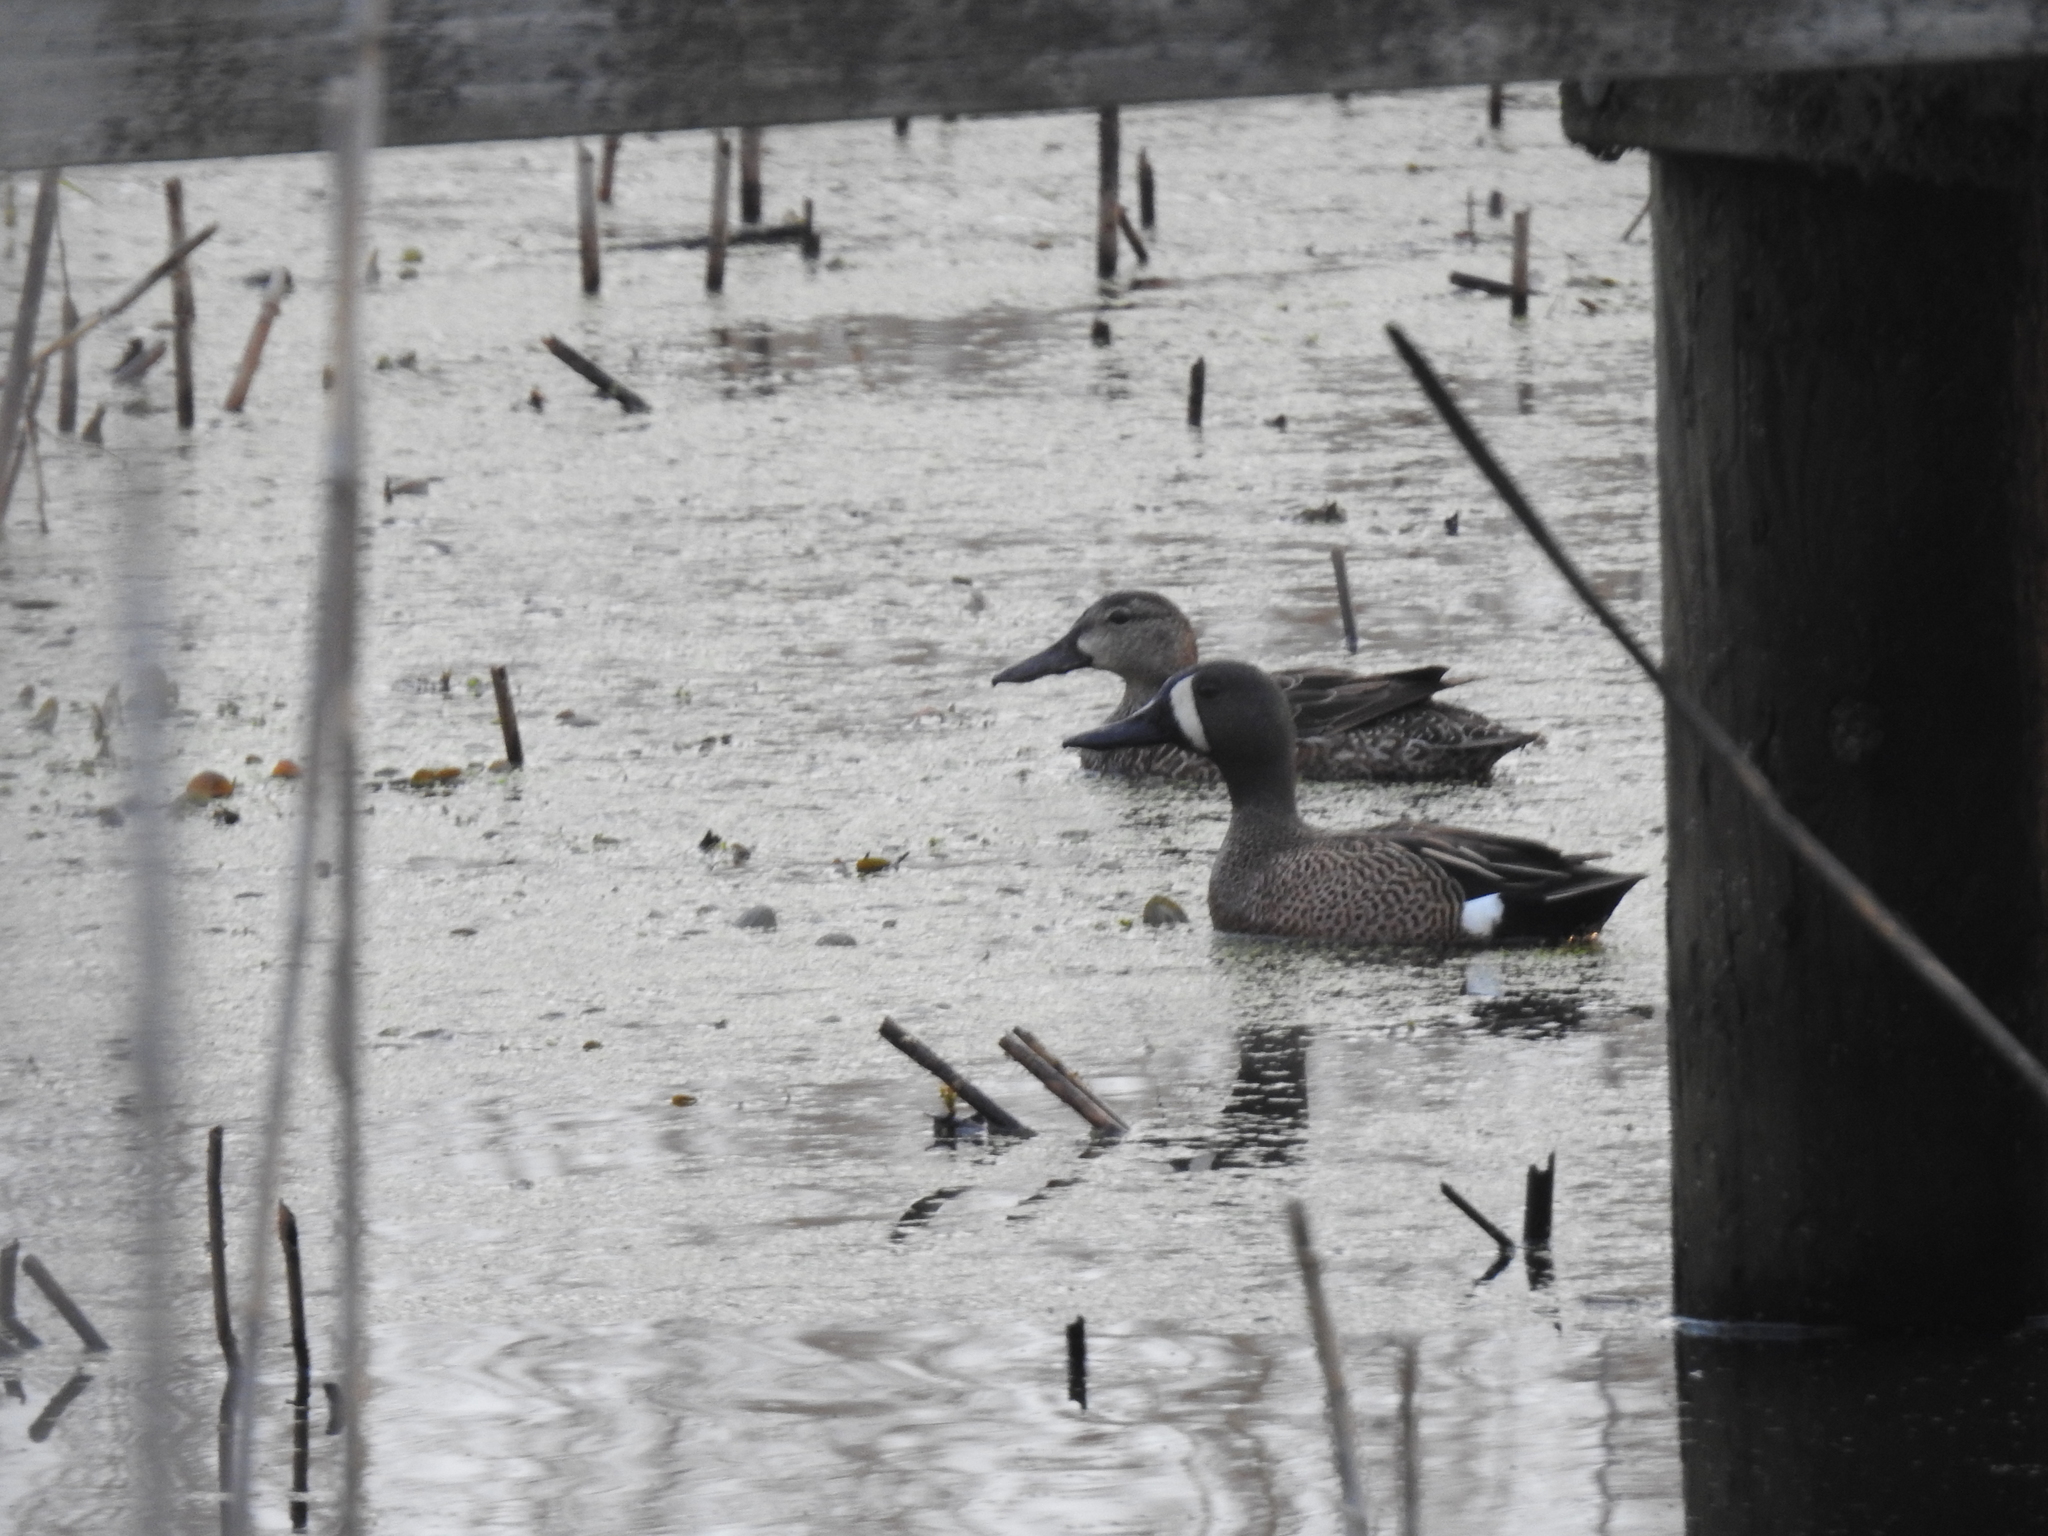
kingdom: Animalia
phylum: Chordata
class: Aves
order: Anseriformes
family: Anatidae
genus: Spatula
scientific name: Spatula discors
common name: Blue-winged teal
